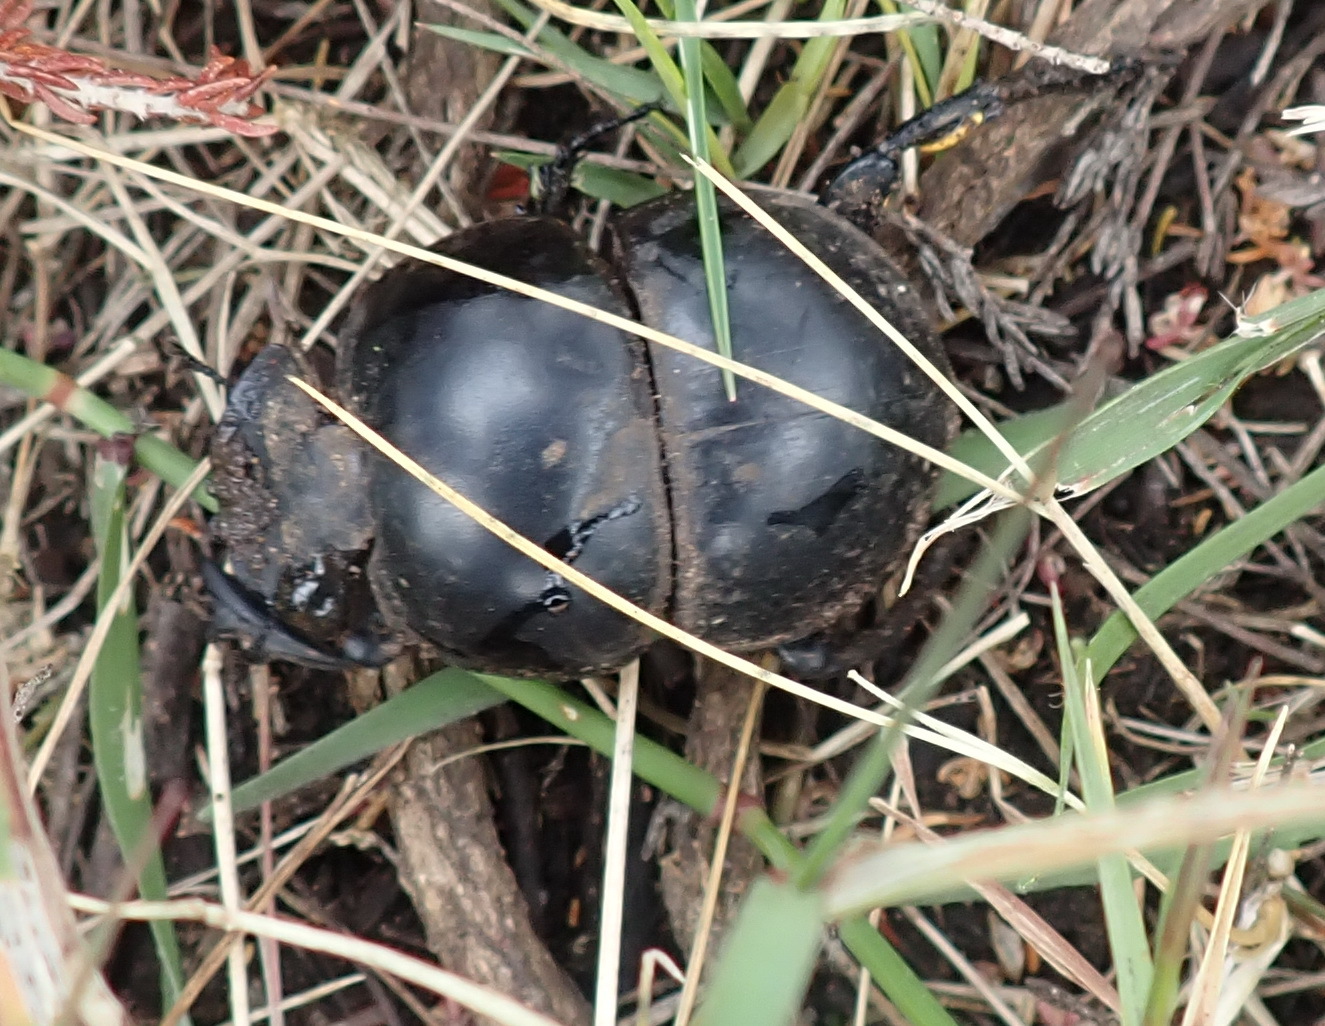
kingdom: Animalia
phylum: Arthropoda
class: Insecta
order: Coleoptera
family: Scarabaeidae
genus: Circellium
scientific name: Circellium bacchus
